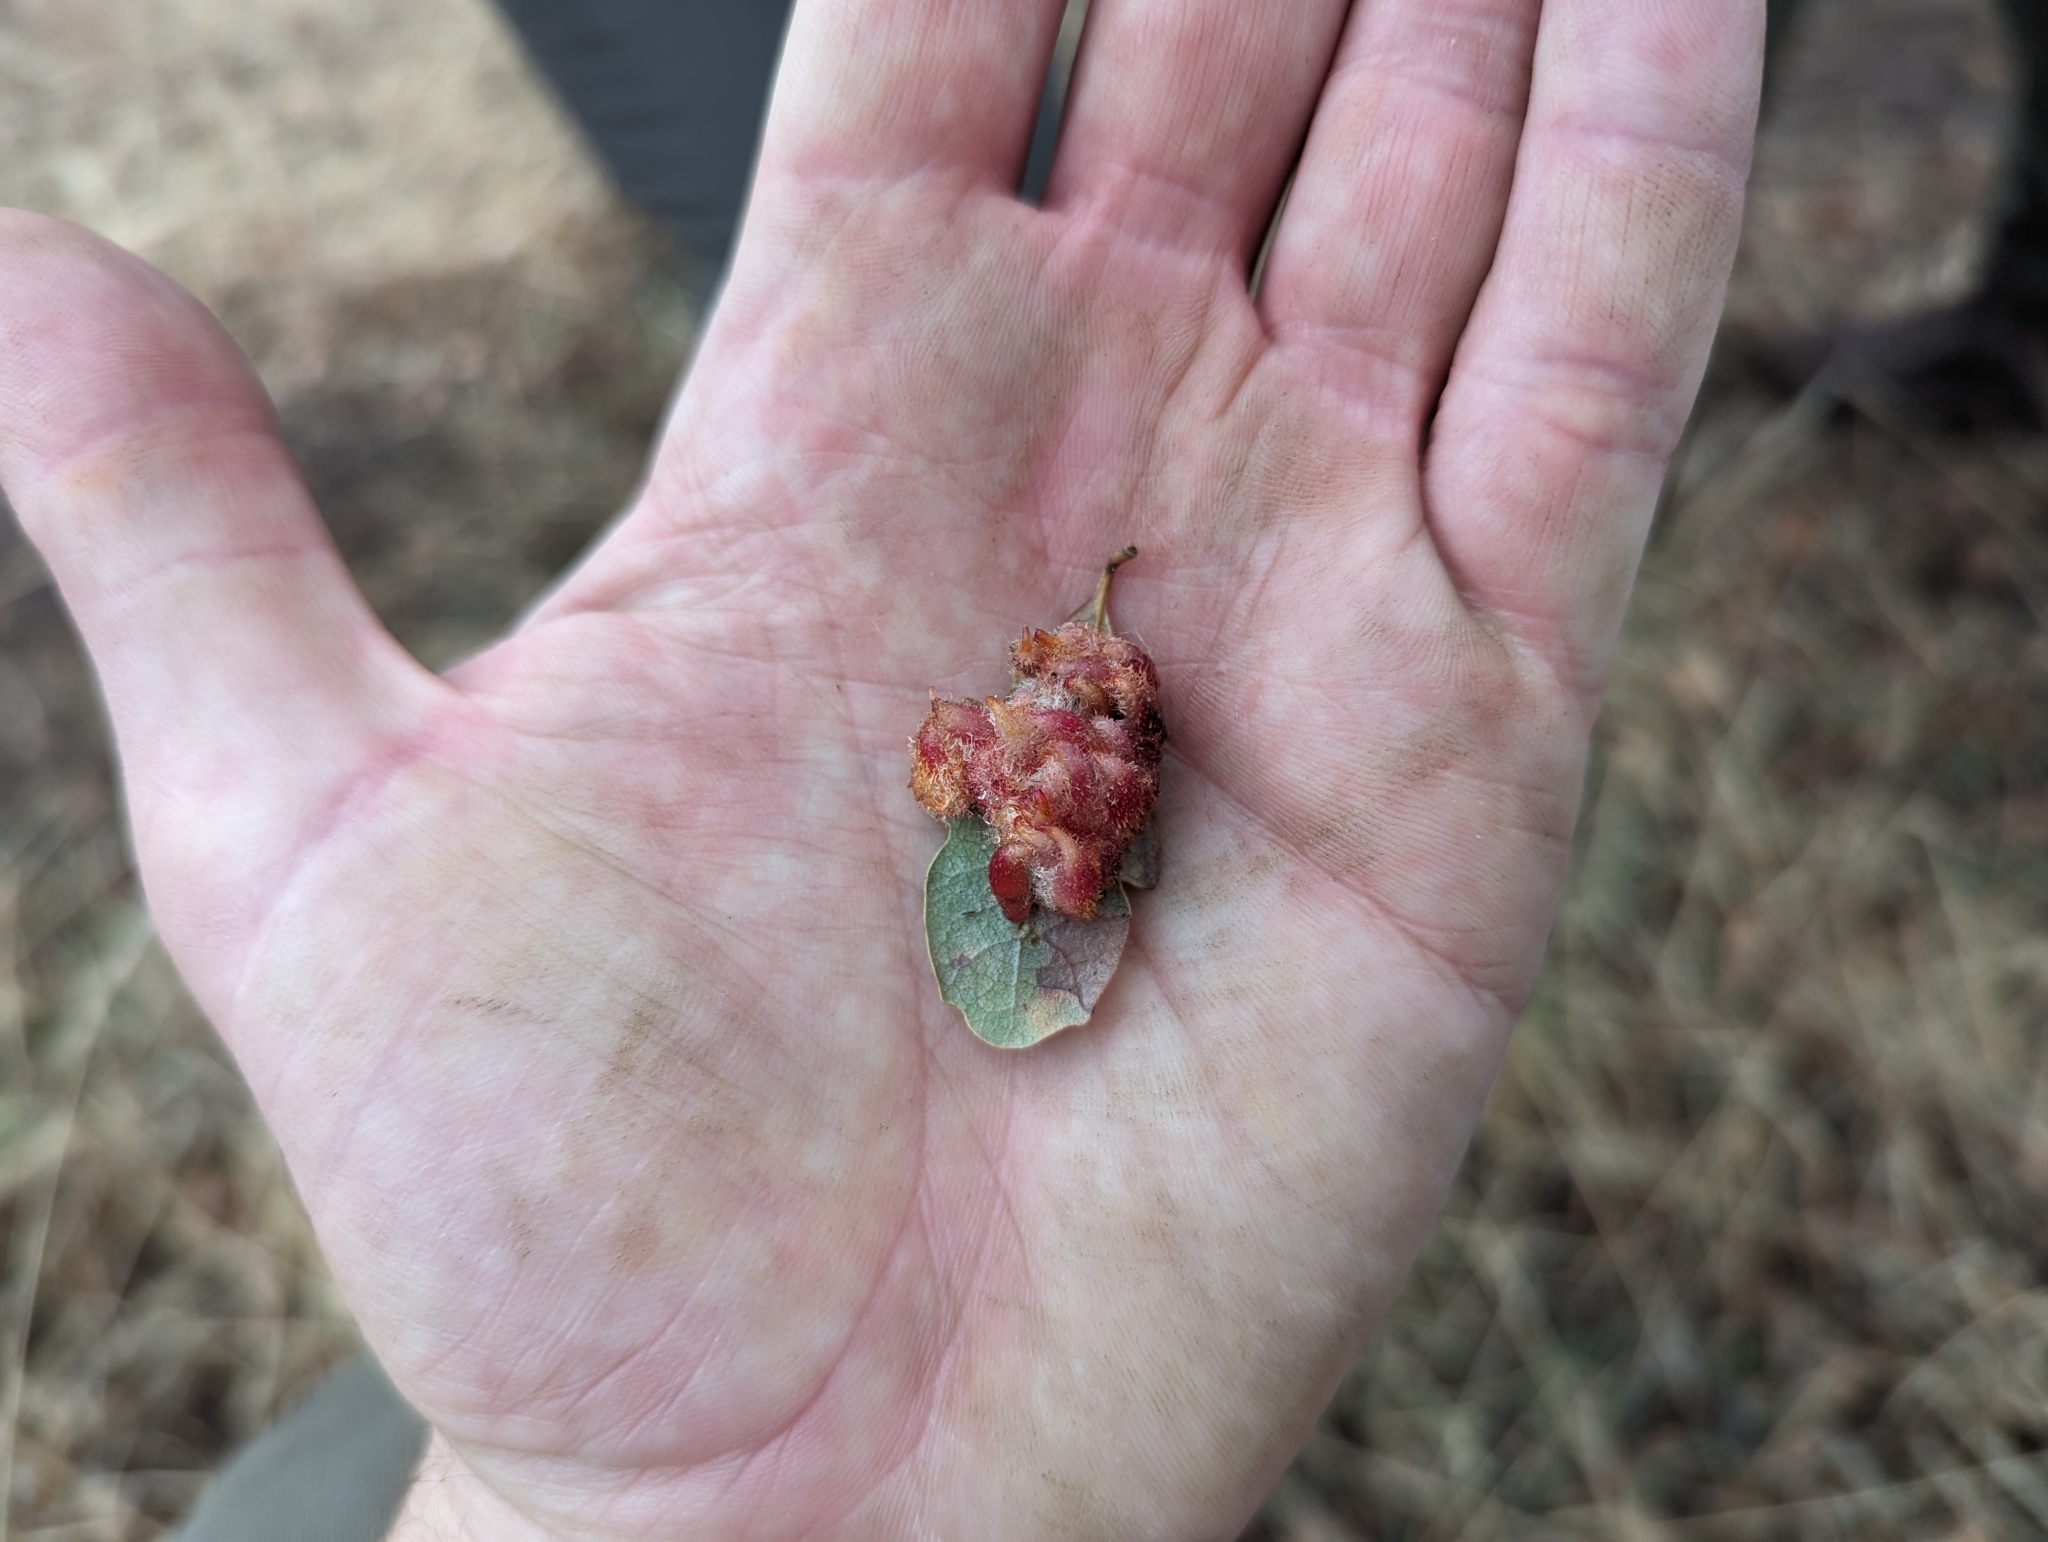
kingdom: Animalia
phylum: Arthropoda
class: Insecta
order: Hymenoptera
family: Cynipidae
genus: Andricus
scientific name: Andricus
